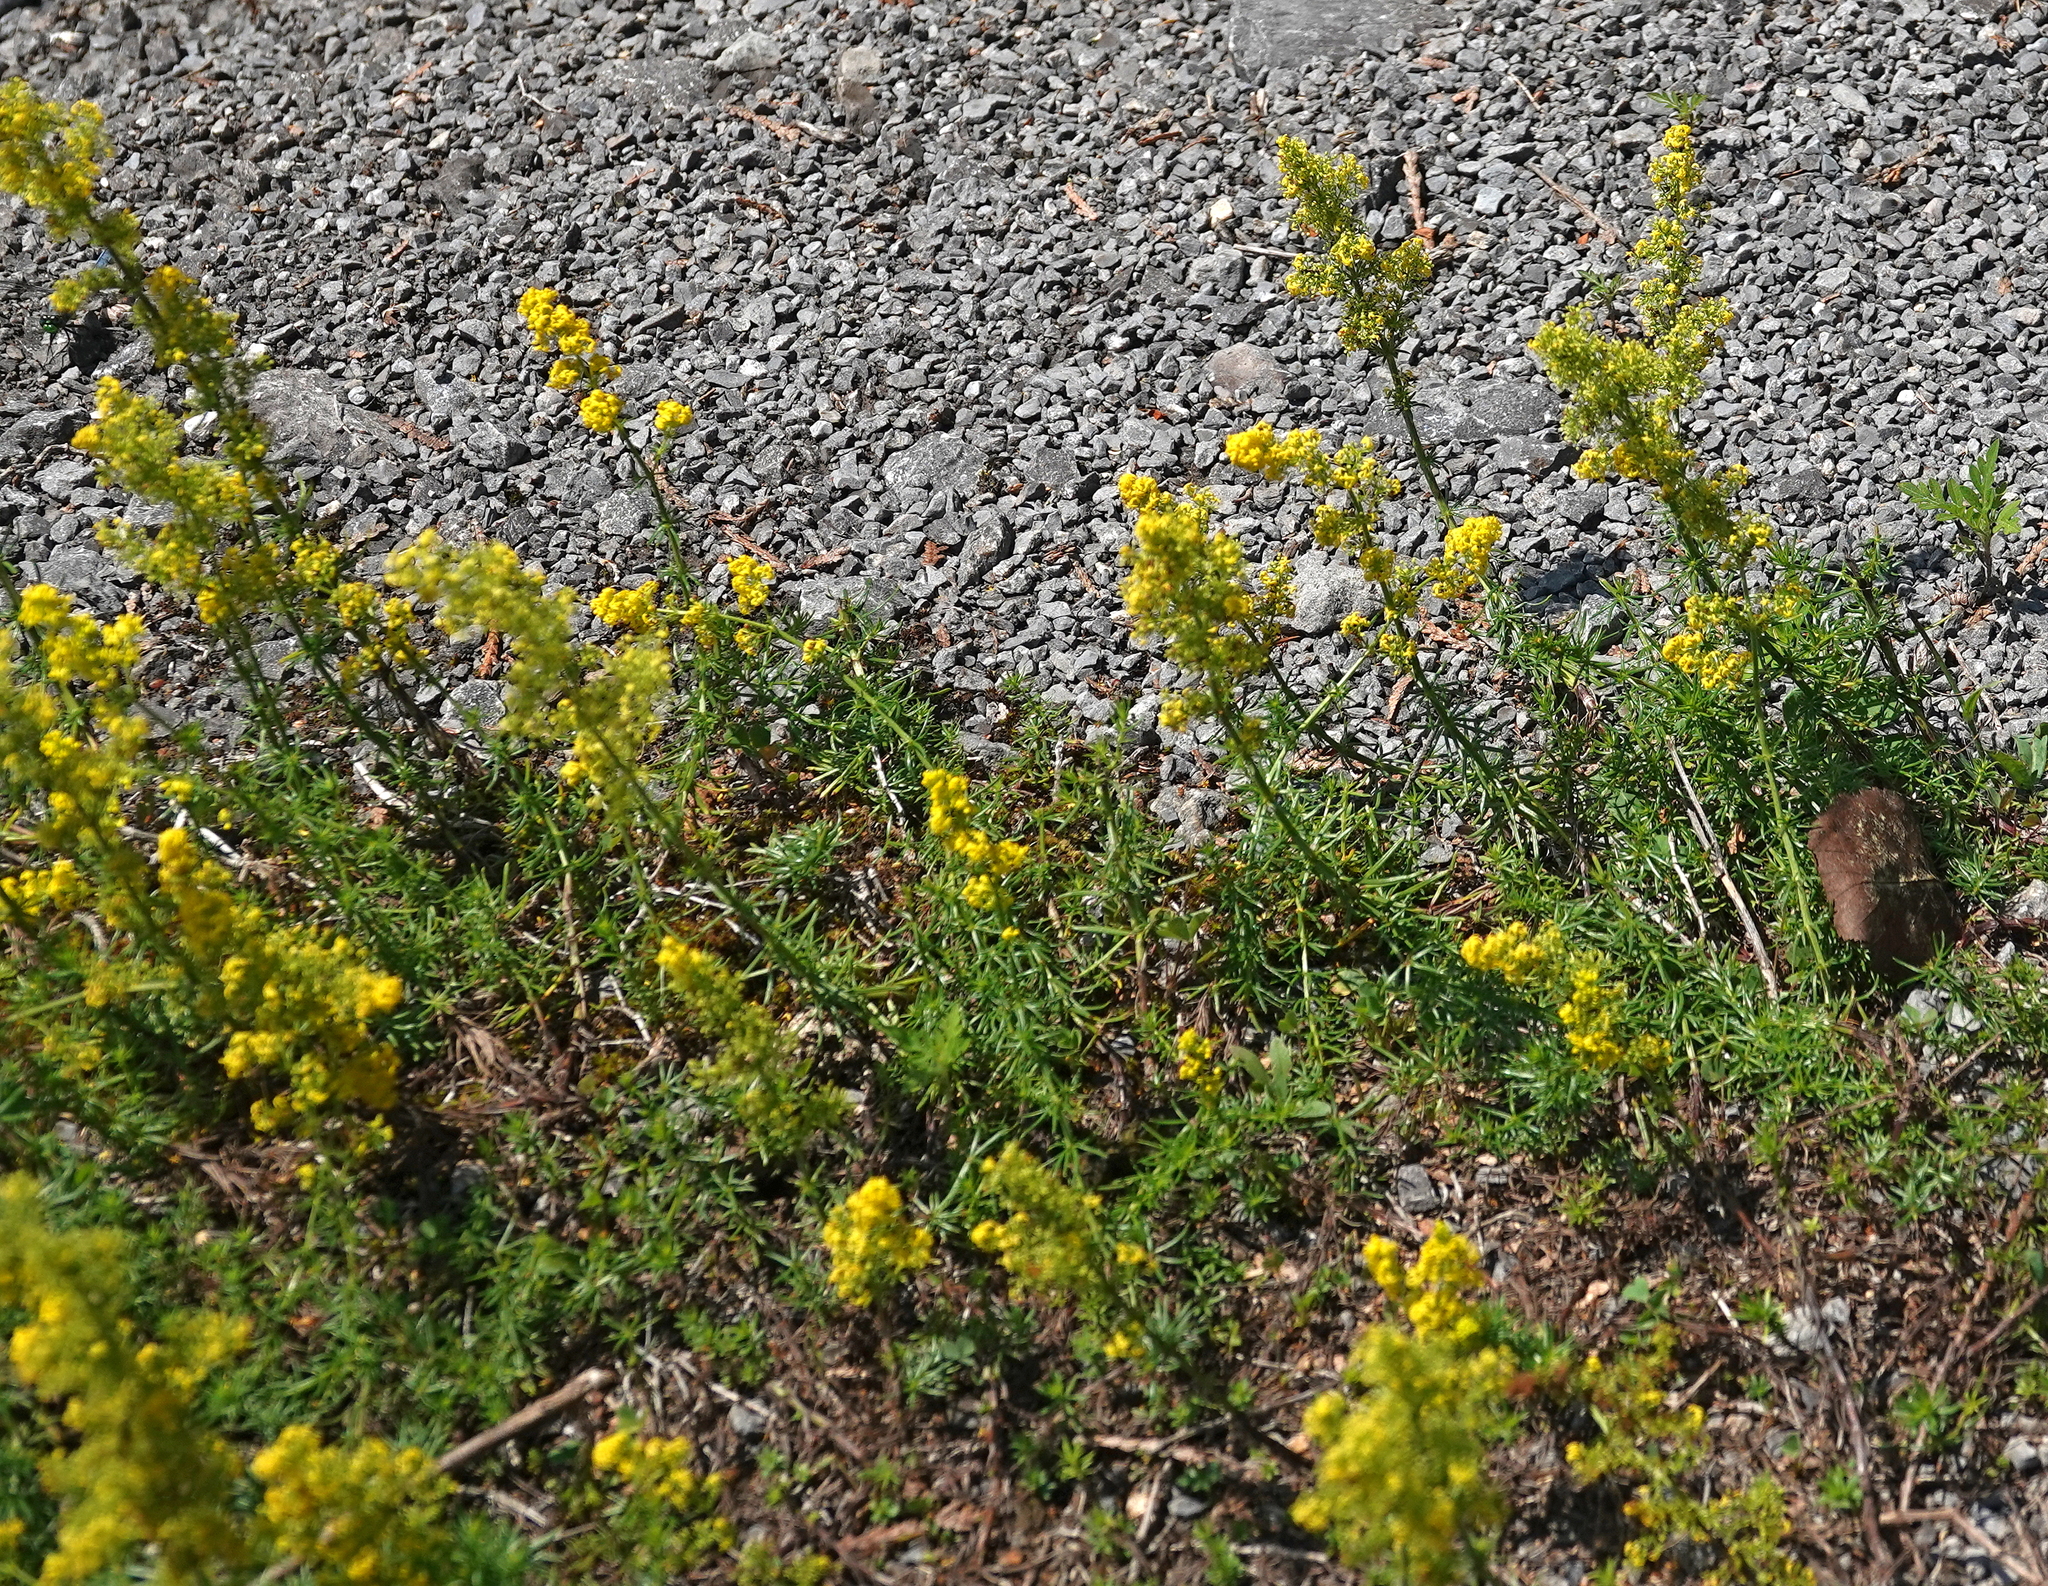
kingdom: Plantae
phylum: Tracheophyta
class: Magnoliopsida
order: Gentianales
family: Rubiaceae
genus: Galium
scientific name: Galium verum
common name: Lady's bedstraw
